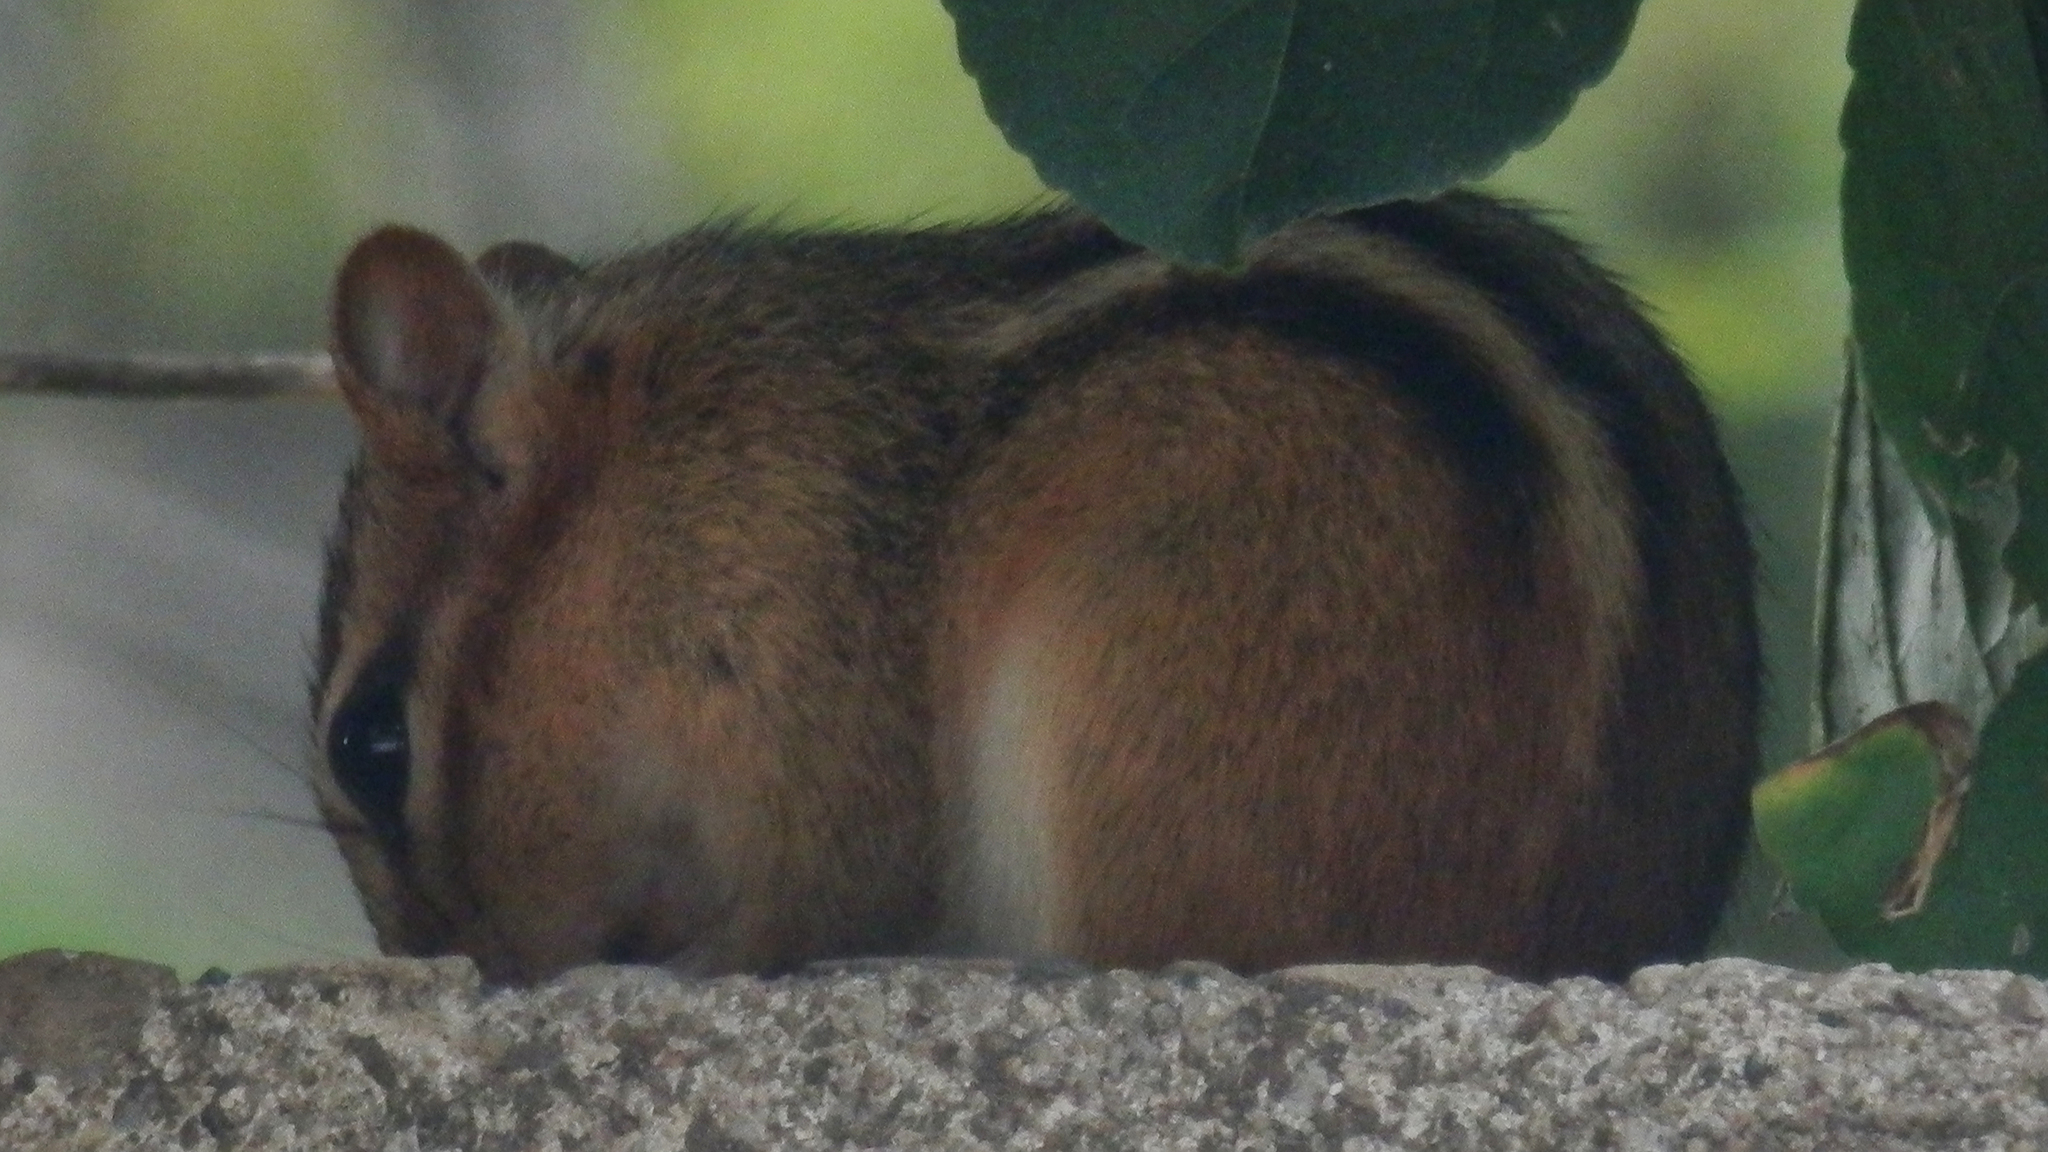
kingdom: Animalia
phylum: Chordata
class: Mammalia
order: Rodentia
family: Sciuridae
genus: Tamias
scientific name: Tamias striatus
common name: Eastern chipmunk
